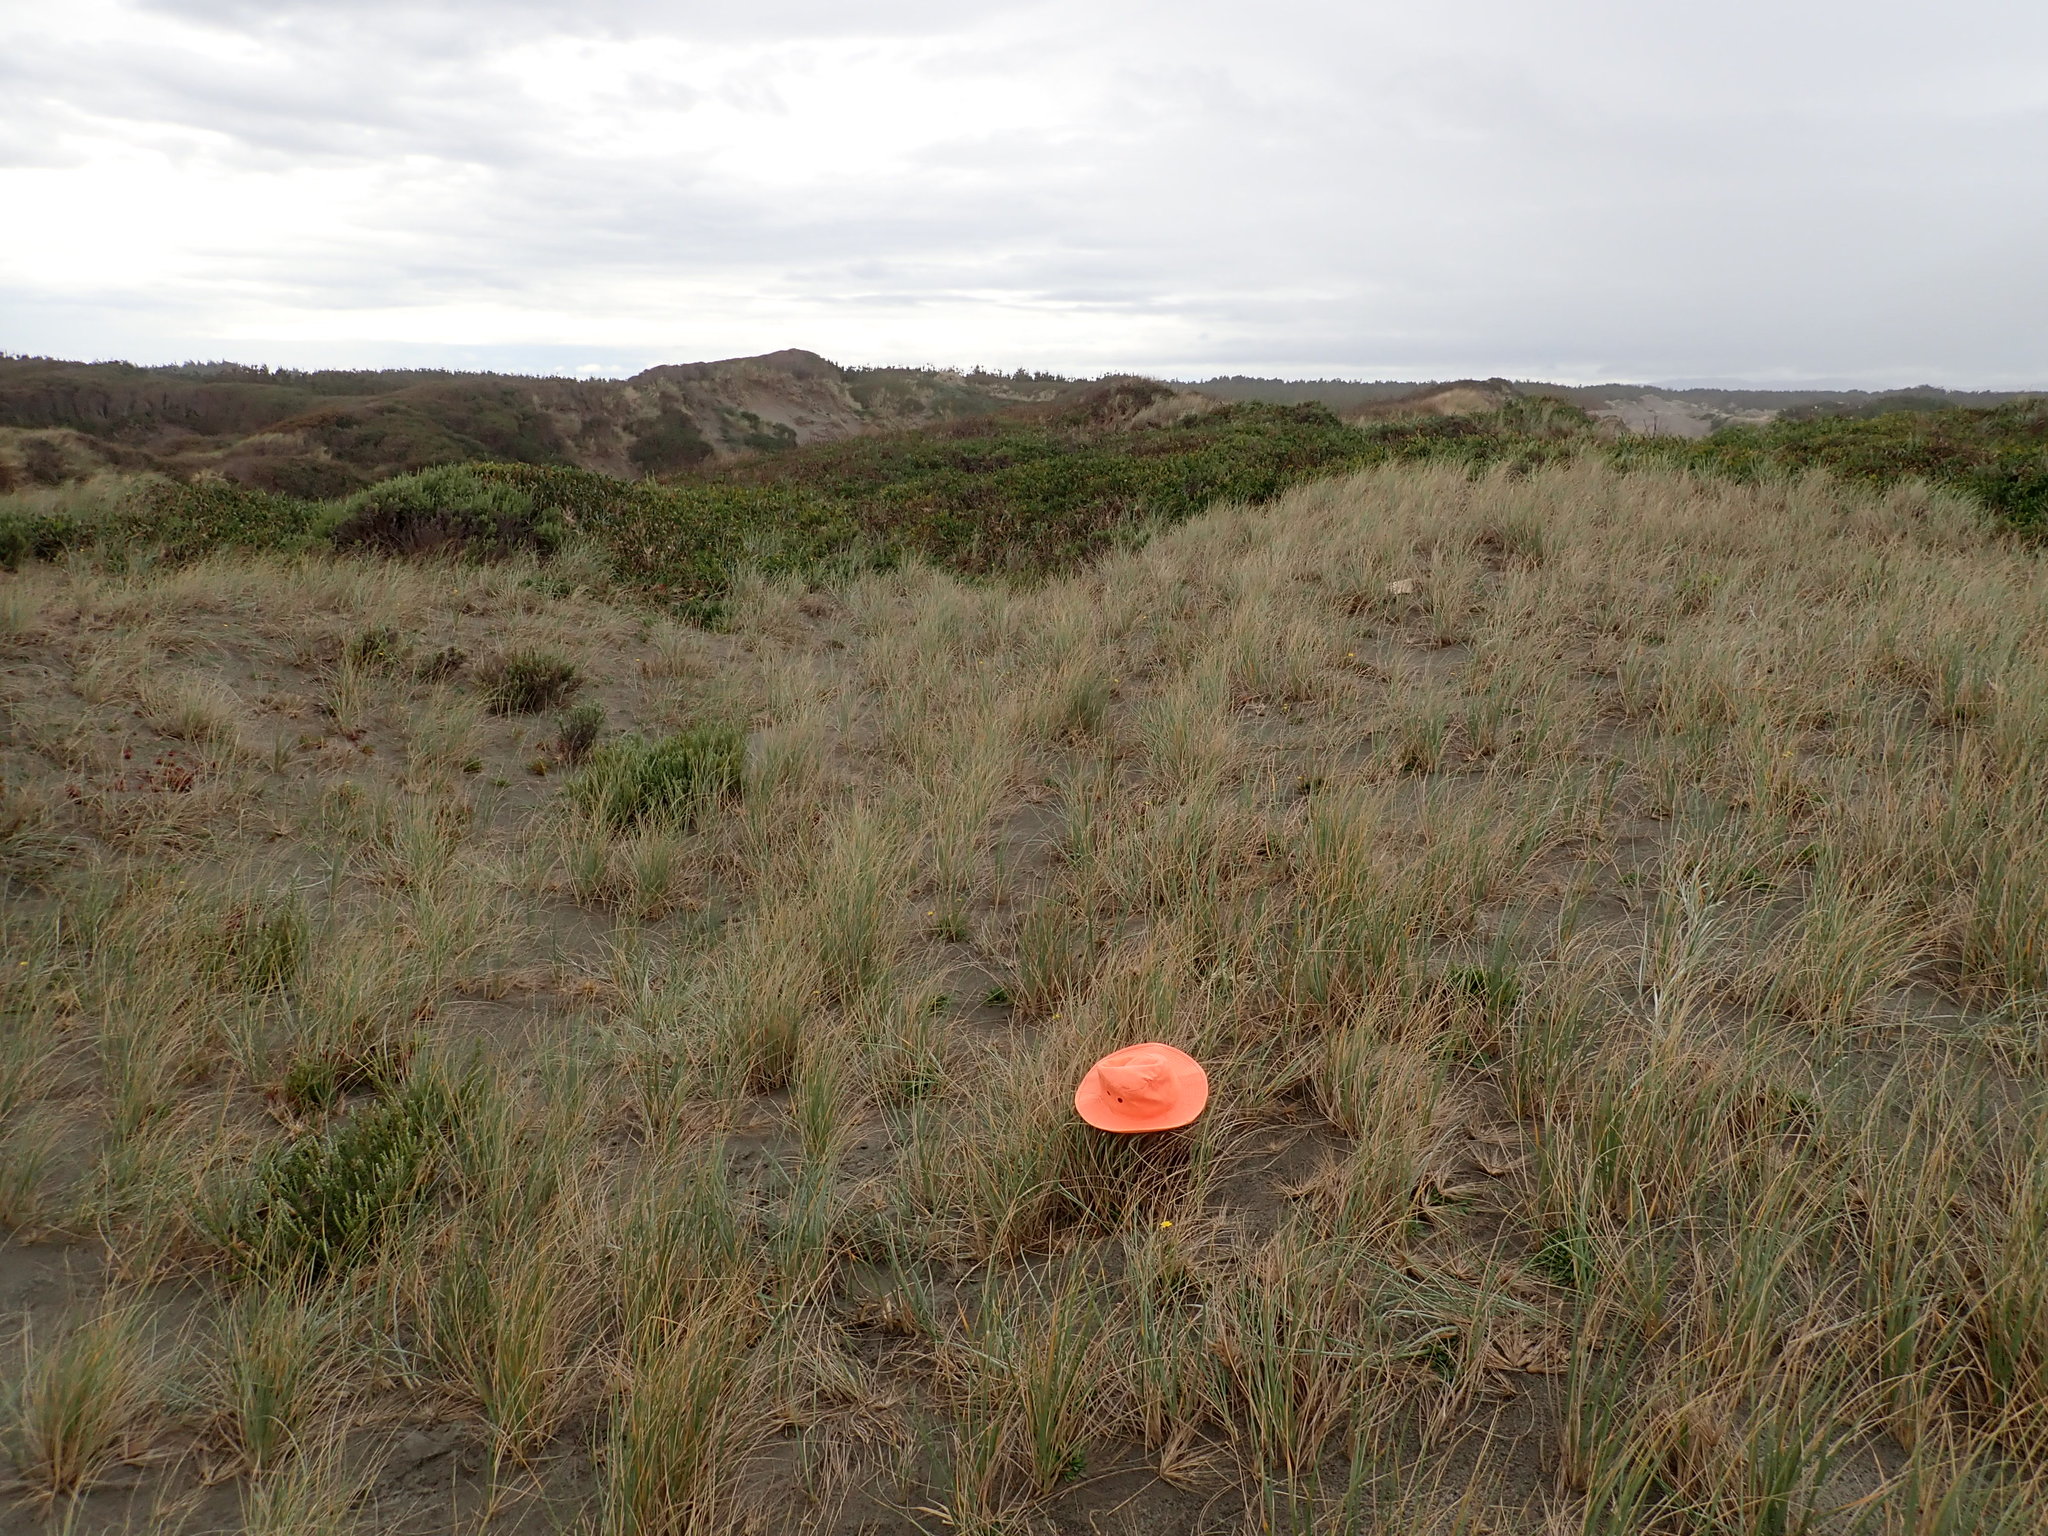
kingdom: Animalia
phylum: Arthropoda
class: Arachnida
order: Araneae
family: Theridiidae
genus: Latrodectus
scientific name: Latrodectus katipo
